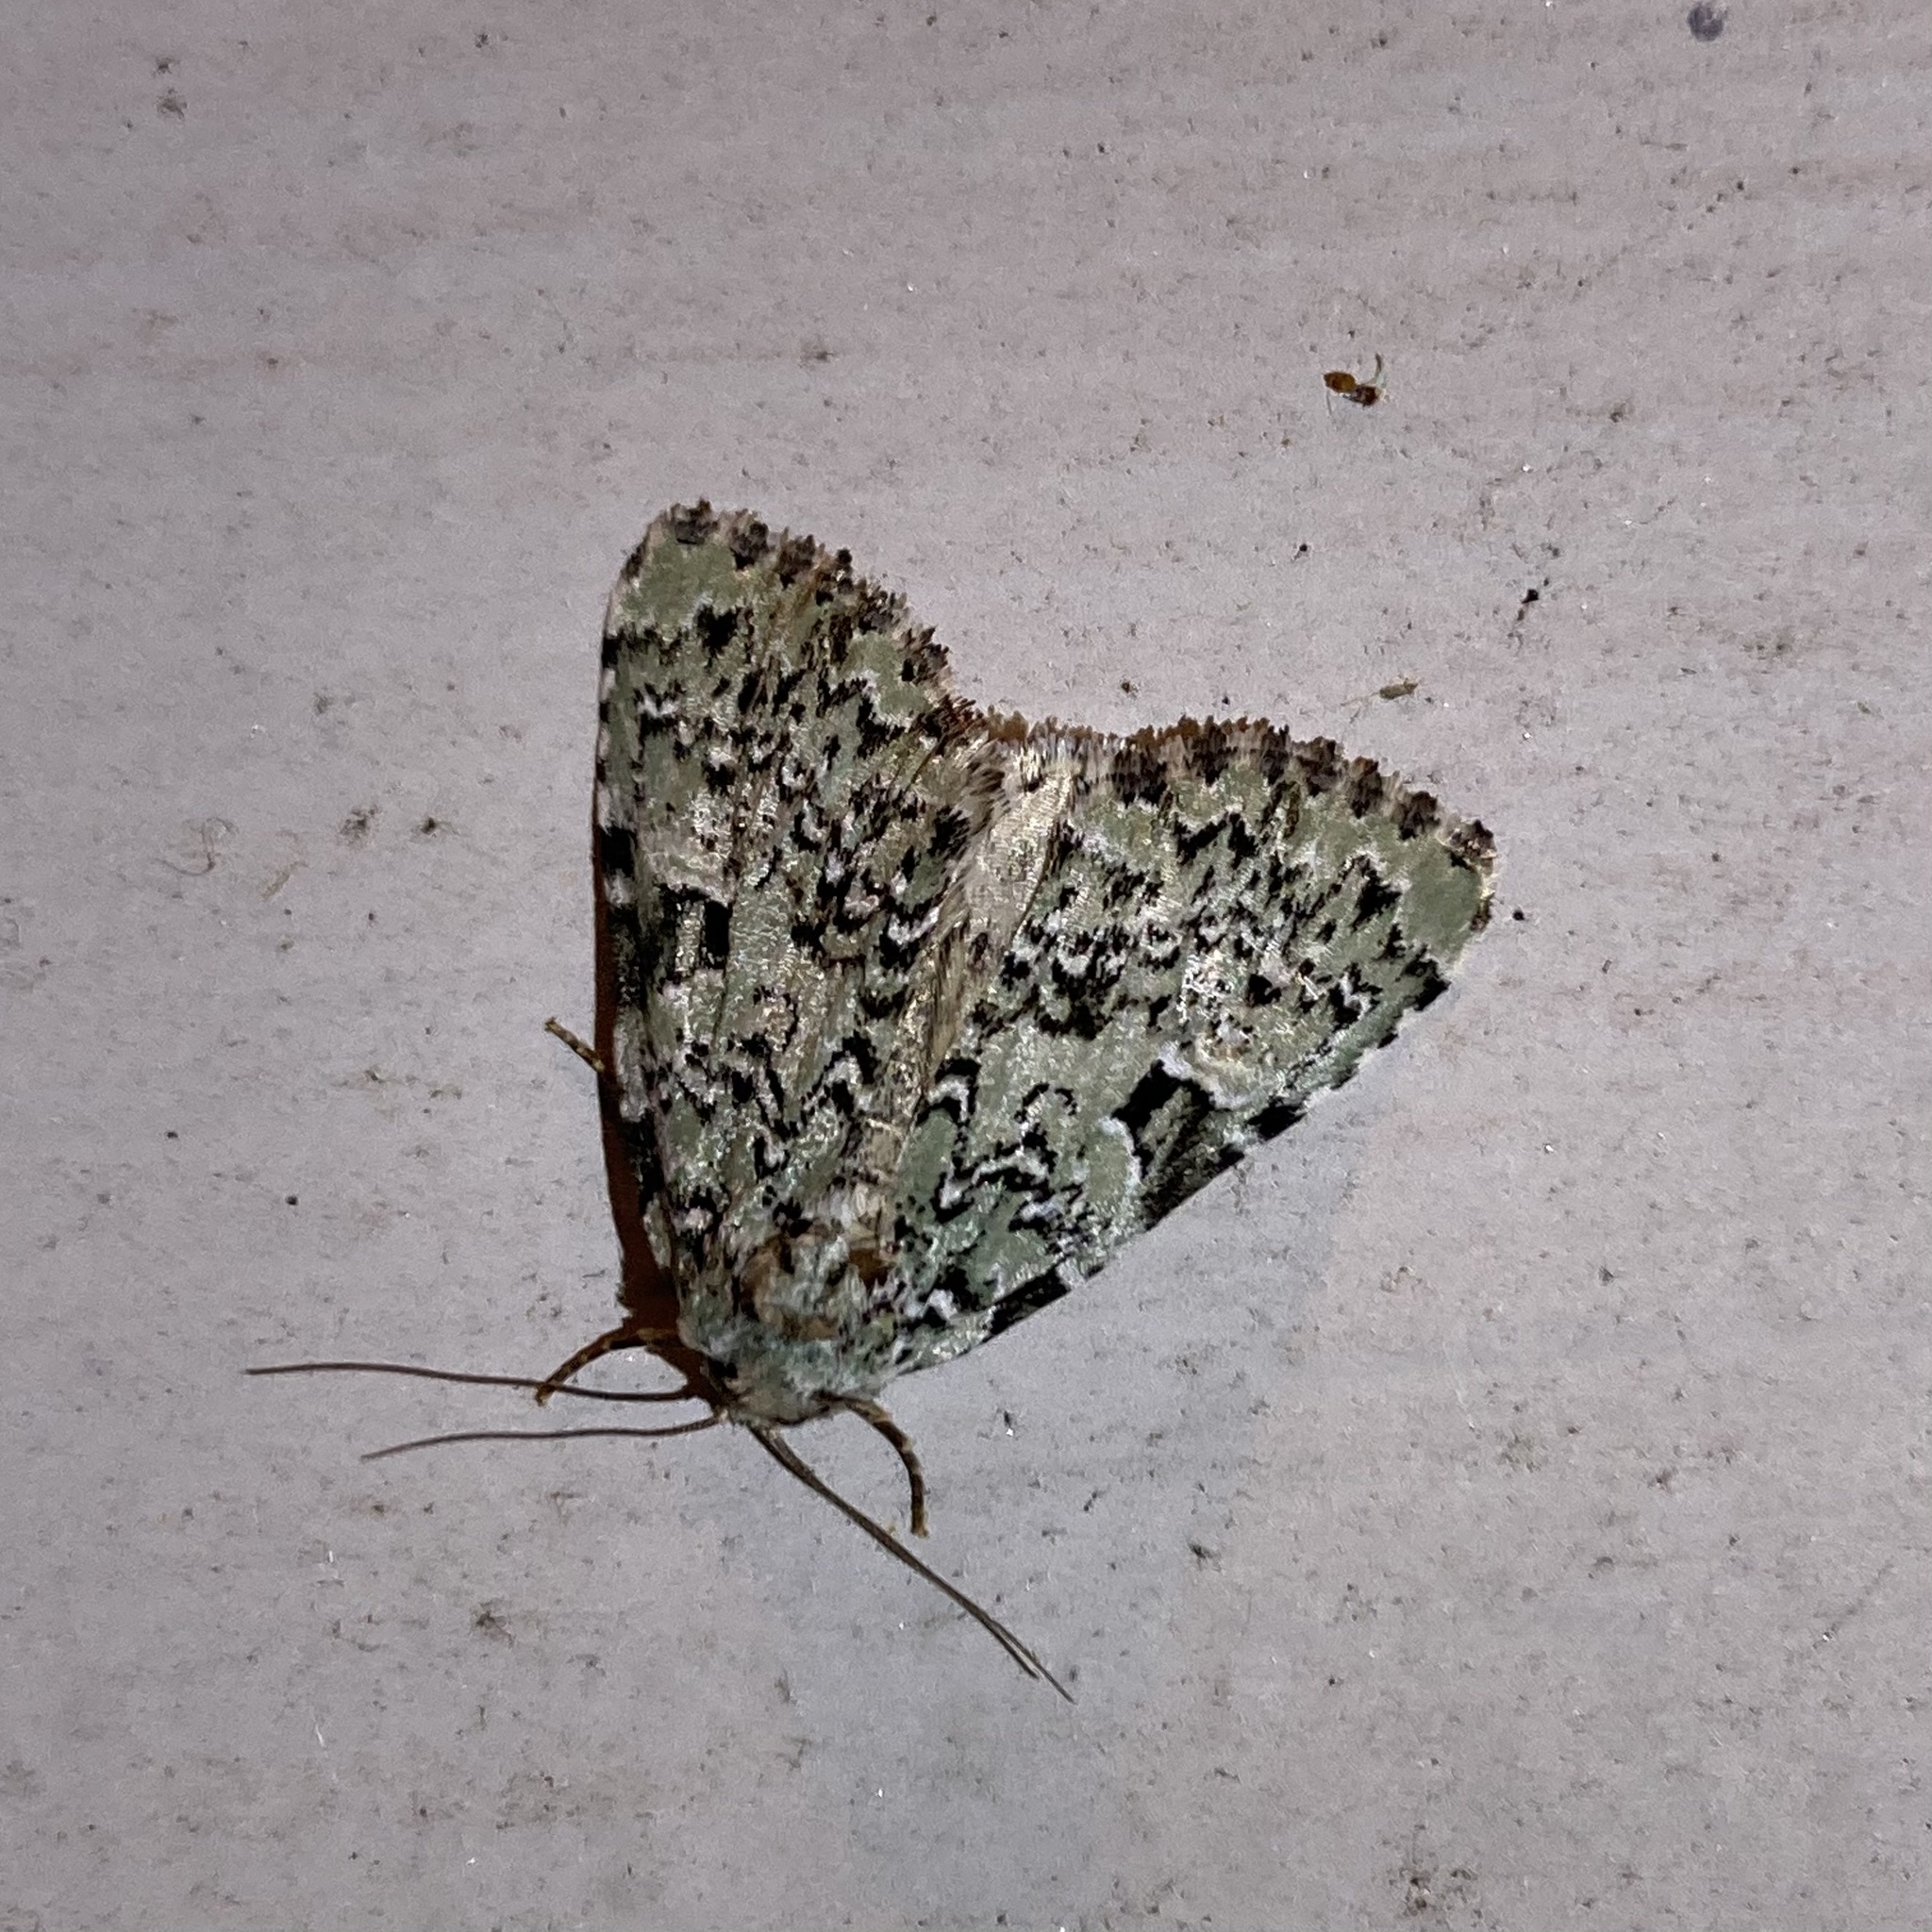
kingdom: Animalia
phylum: Arthropoda
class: Insecta
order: Lepidoptera
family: Noctuidae
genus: Leuconycta
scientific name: Leuconycta diphteroides
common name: Green leuconycta moth
